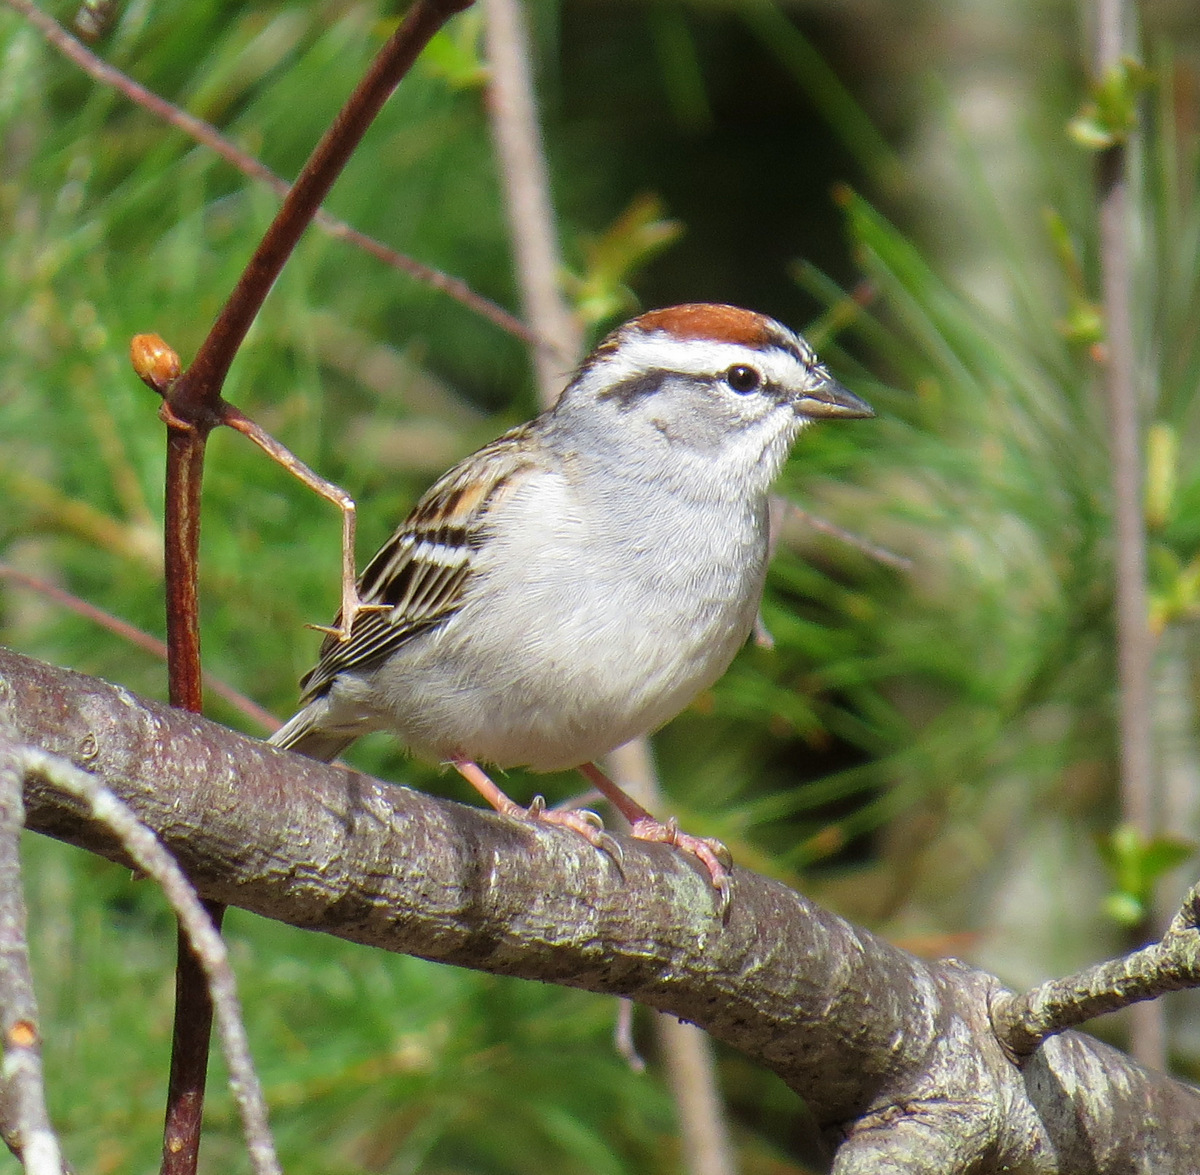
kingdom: Animalia
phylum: Chordata
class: Aves
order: Passeriformes
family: Passerellidae
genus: Spizella
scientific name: Spizella passerina
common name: Chipping sparrow
